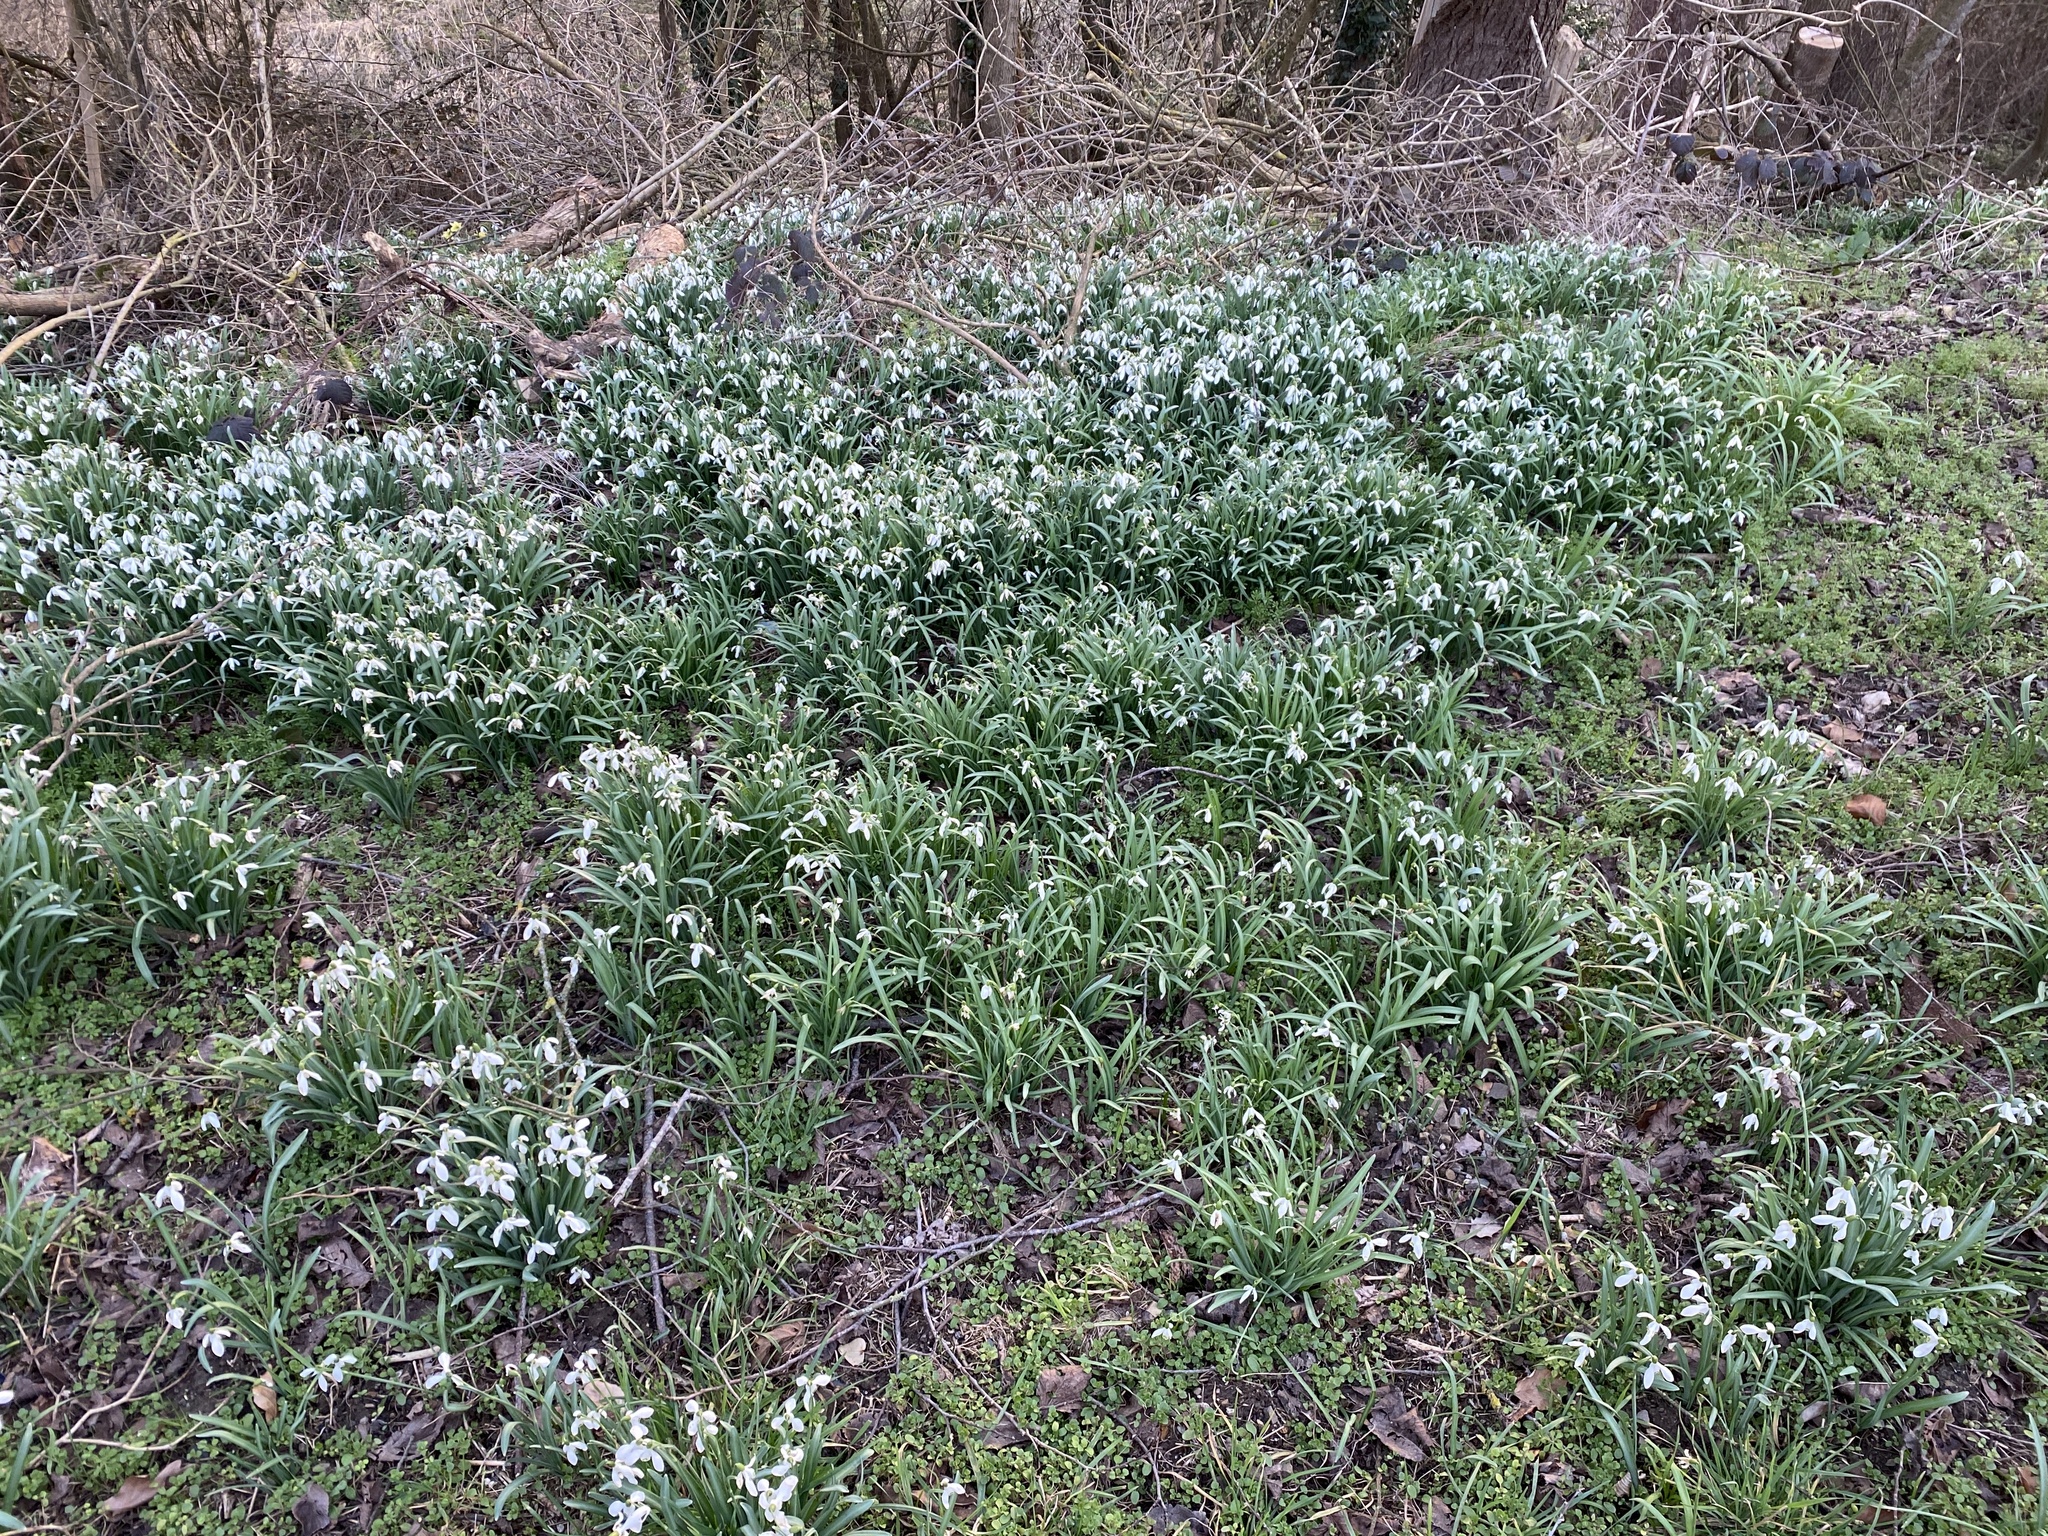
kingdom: Plantae
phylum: Tracheophyta
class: Liliopsida
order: Asparagales
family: Amaryllidaceae
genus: Galanthus
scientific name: Galanthus nivalis
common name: Snowdrop
